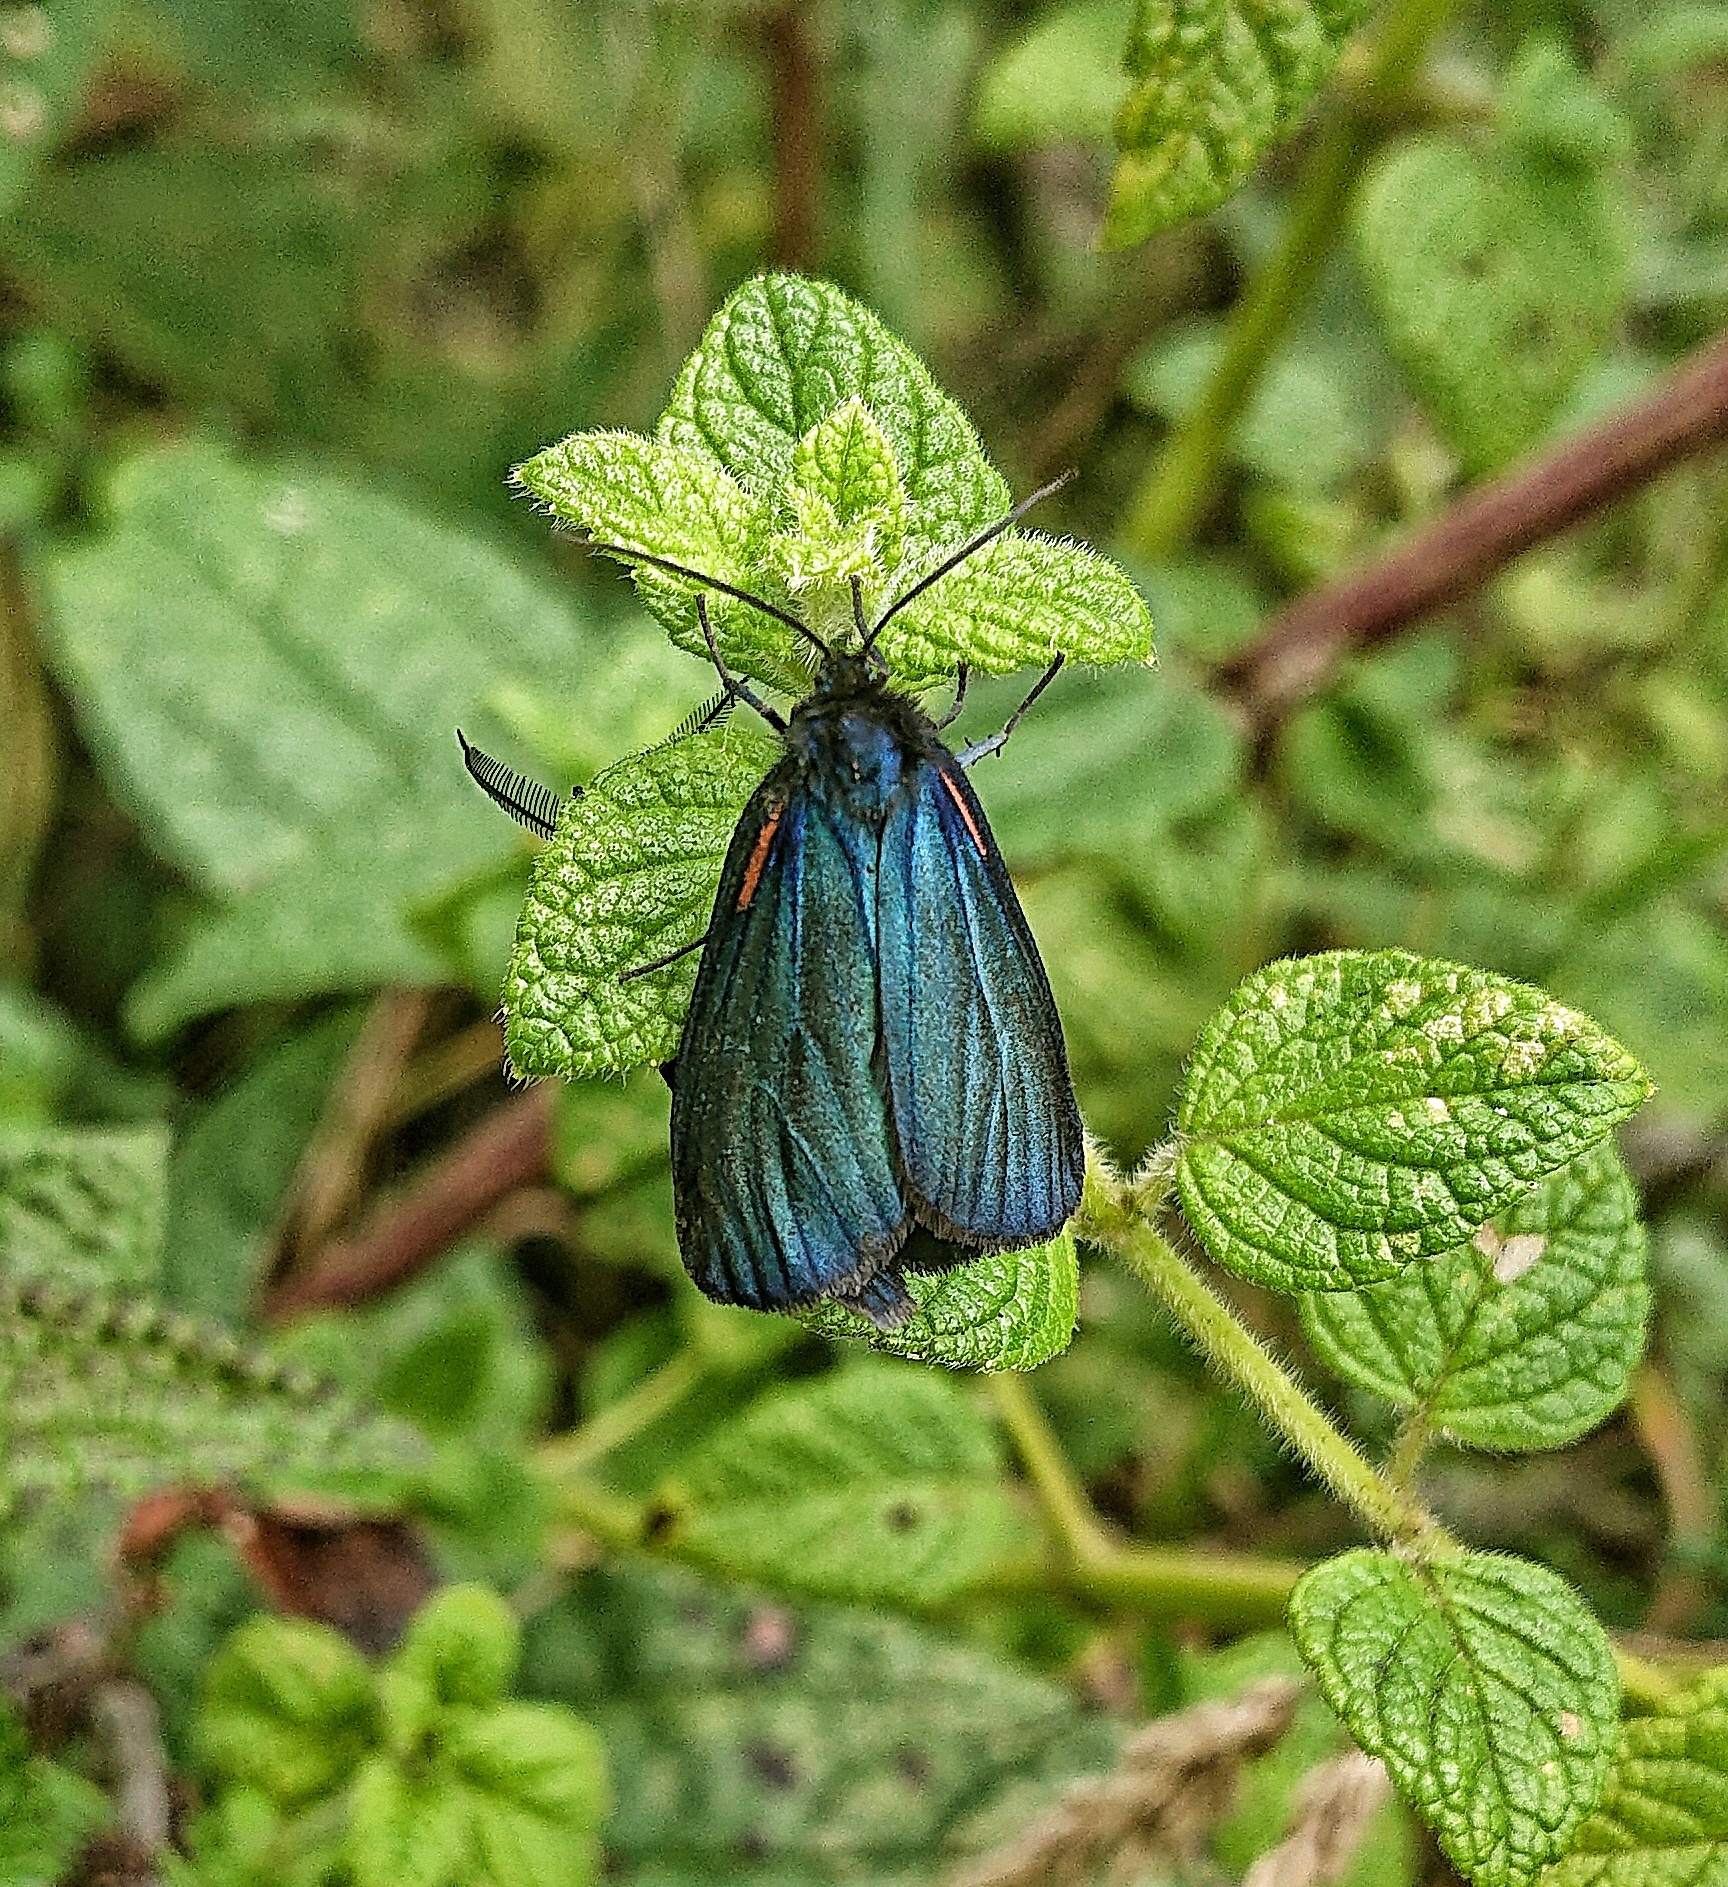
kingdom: Animalia
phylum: Arthropoda
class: Insecta
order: Lepidoptera
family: Notodontidae
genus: Scea
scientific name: Scea
